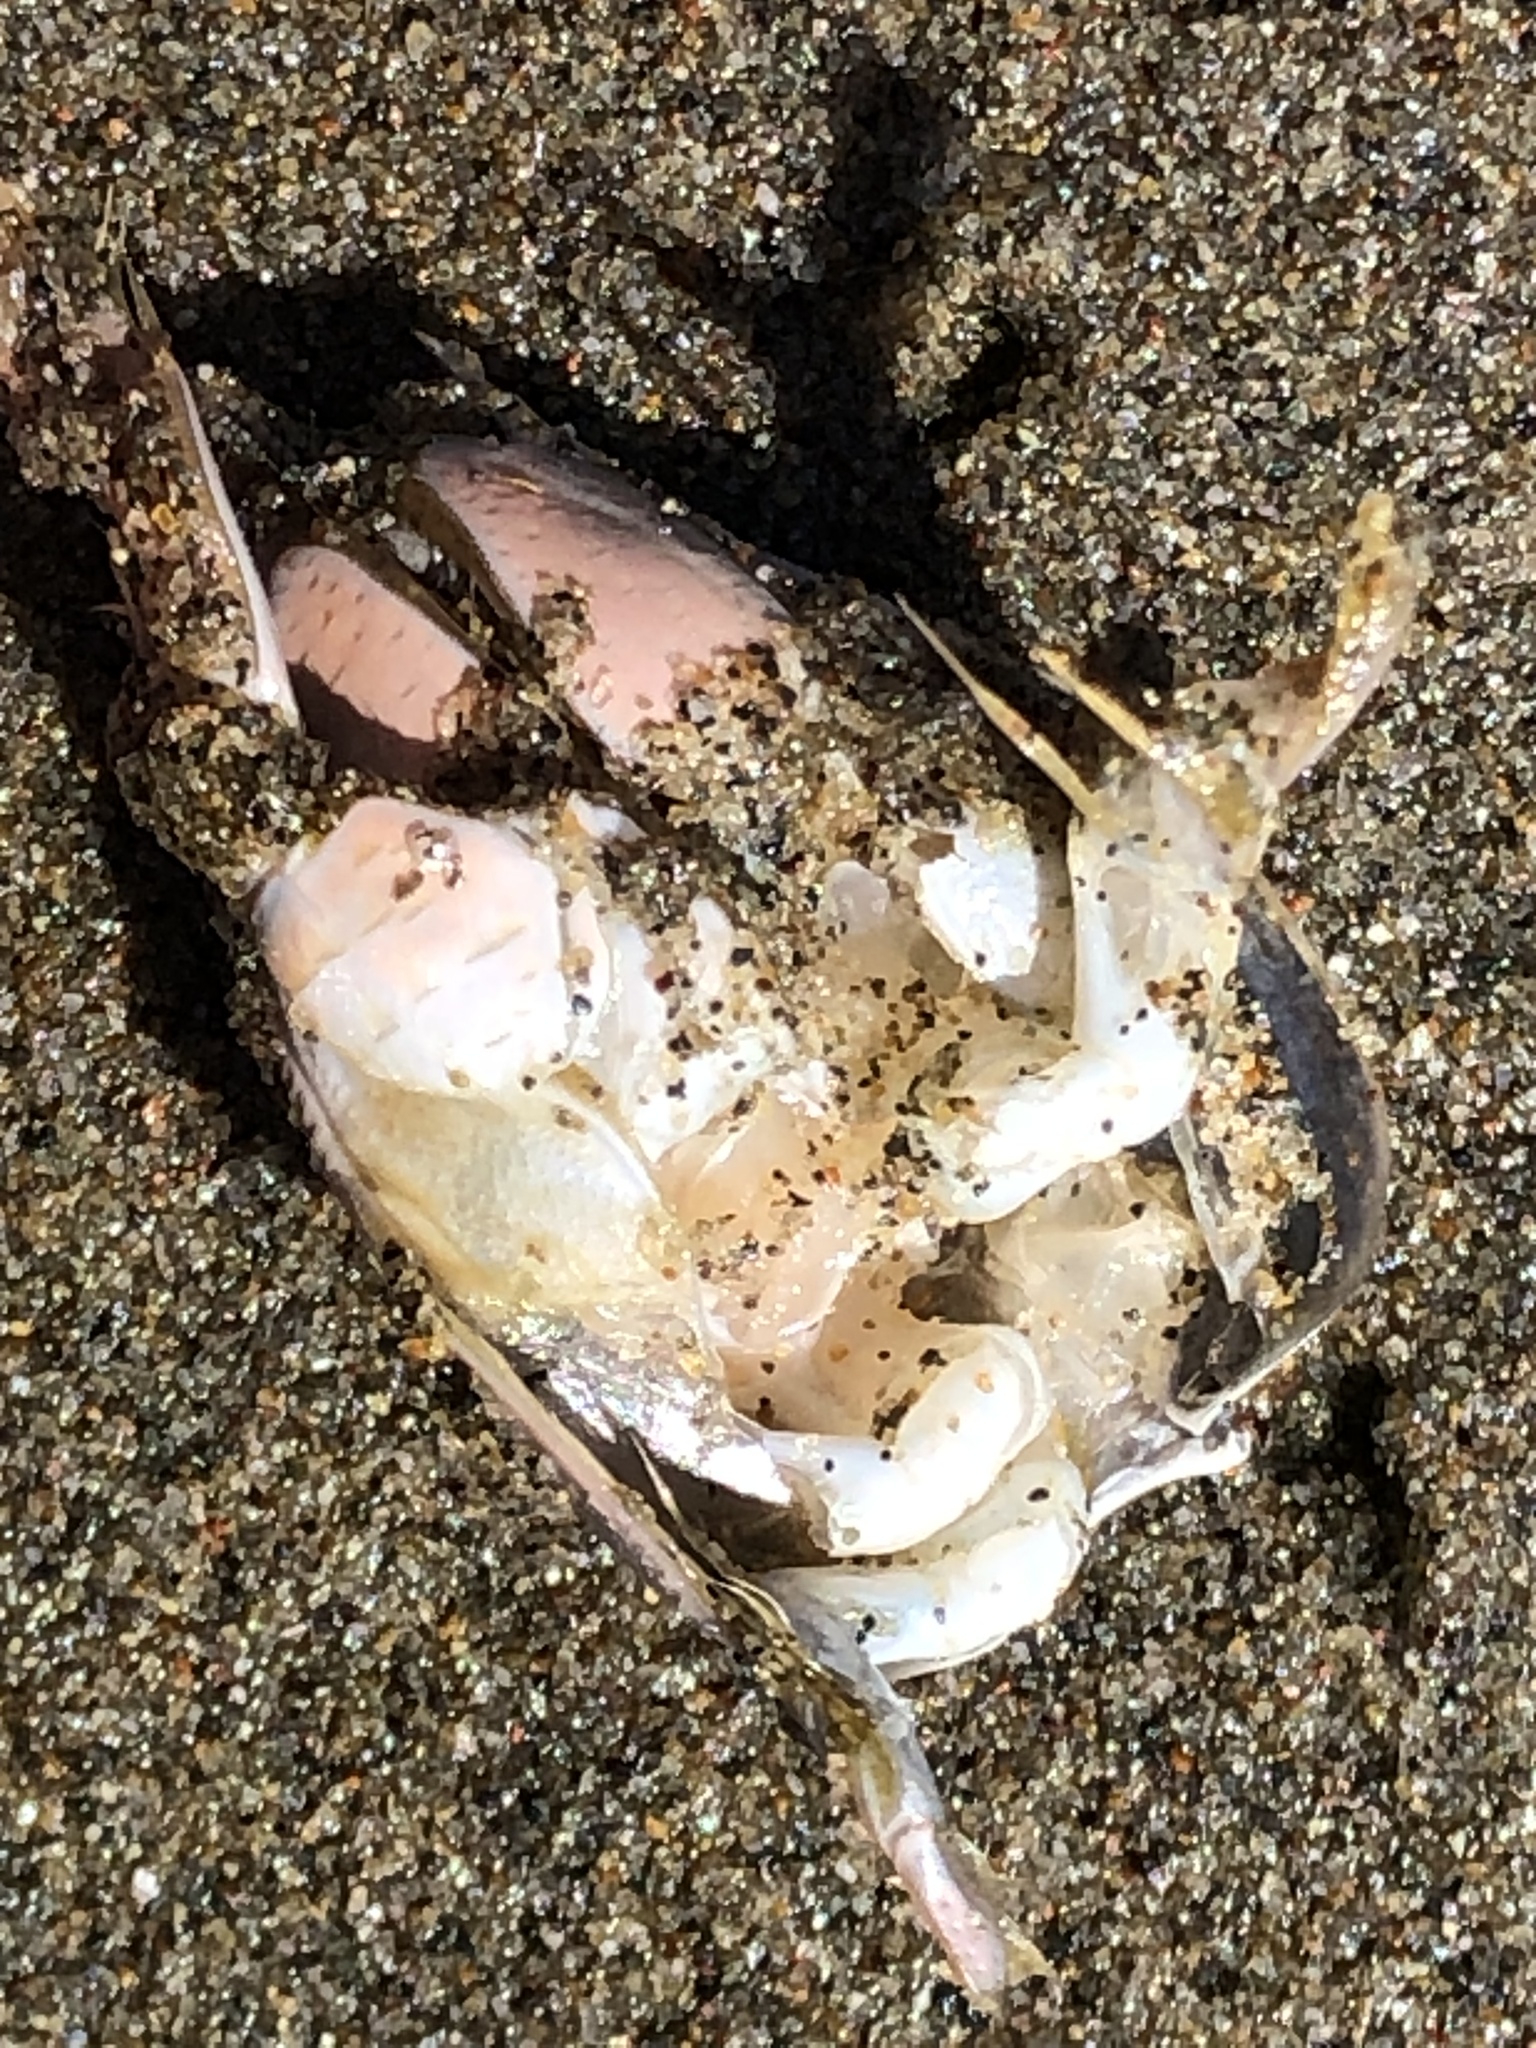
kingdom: Animalia
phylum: Arthropoda
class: Malacostraca
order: Decapoda
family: Hippidae
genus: Emerita
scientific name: Emerita analoga
